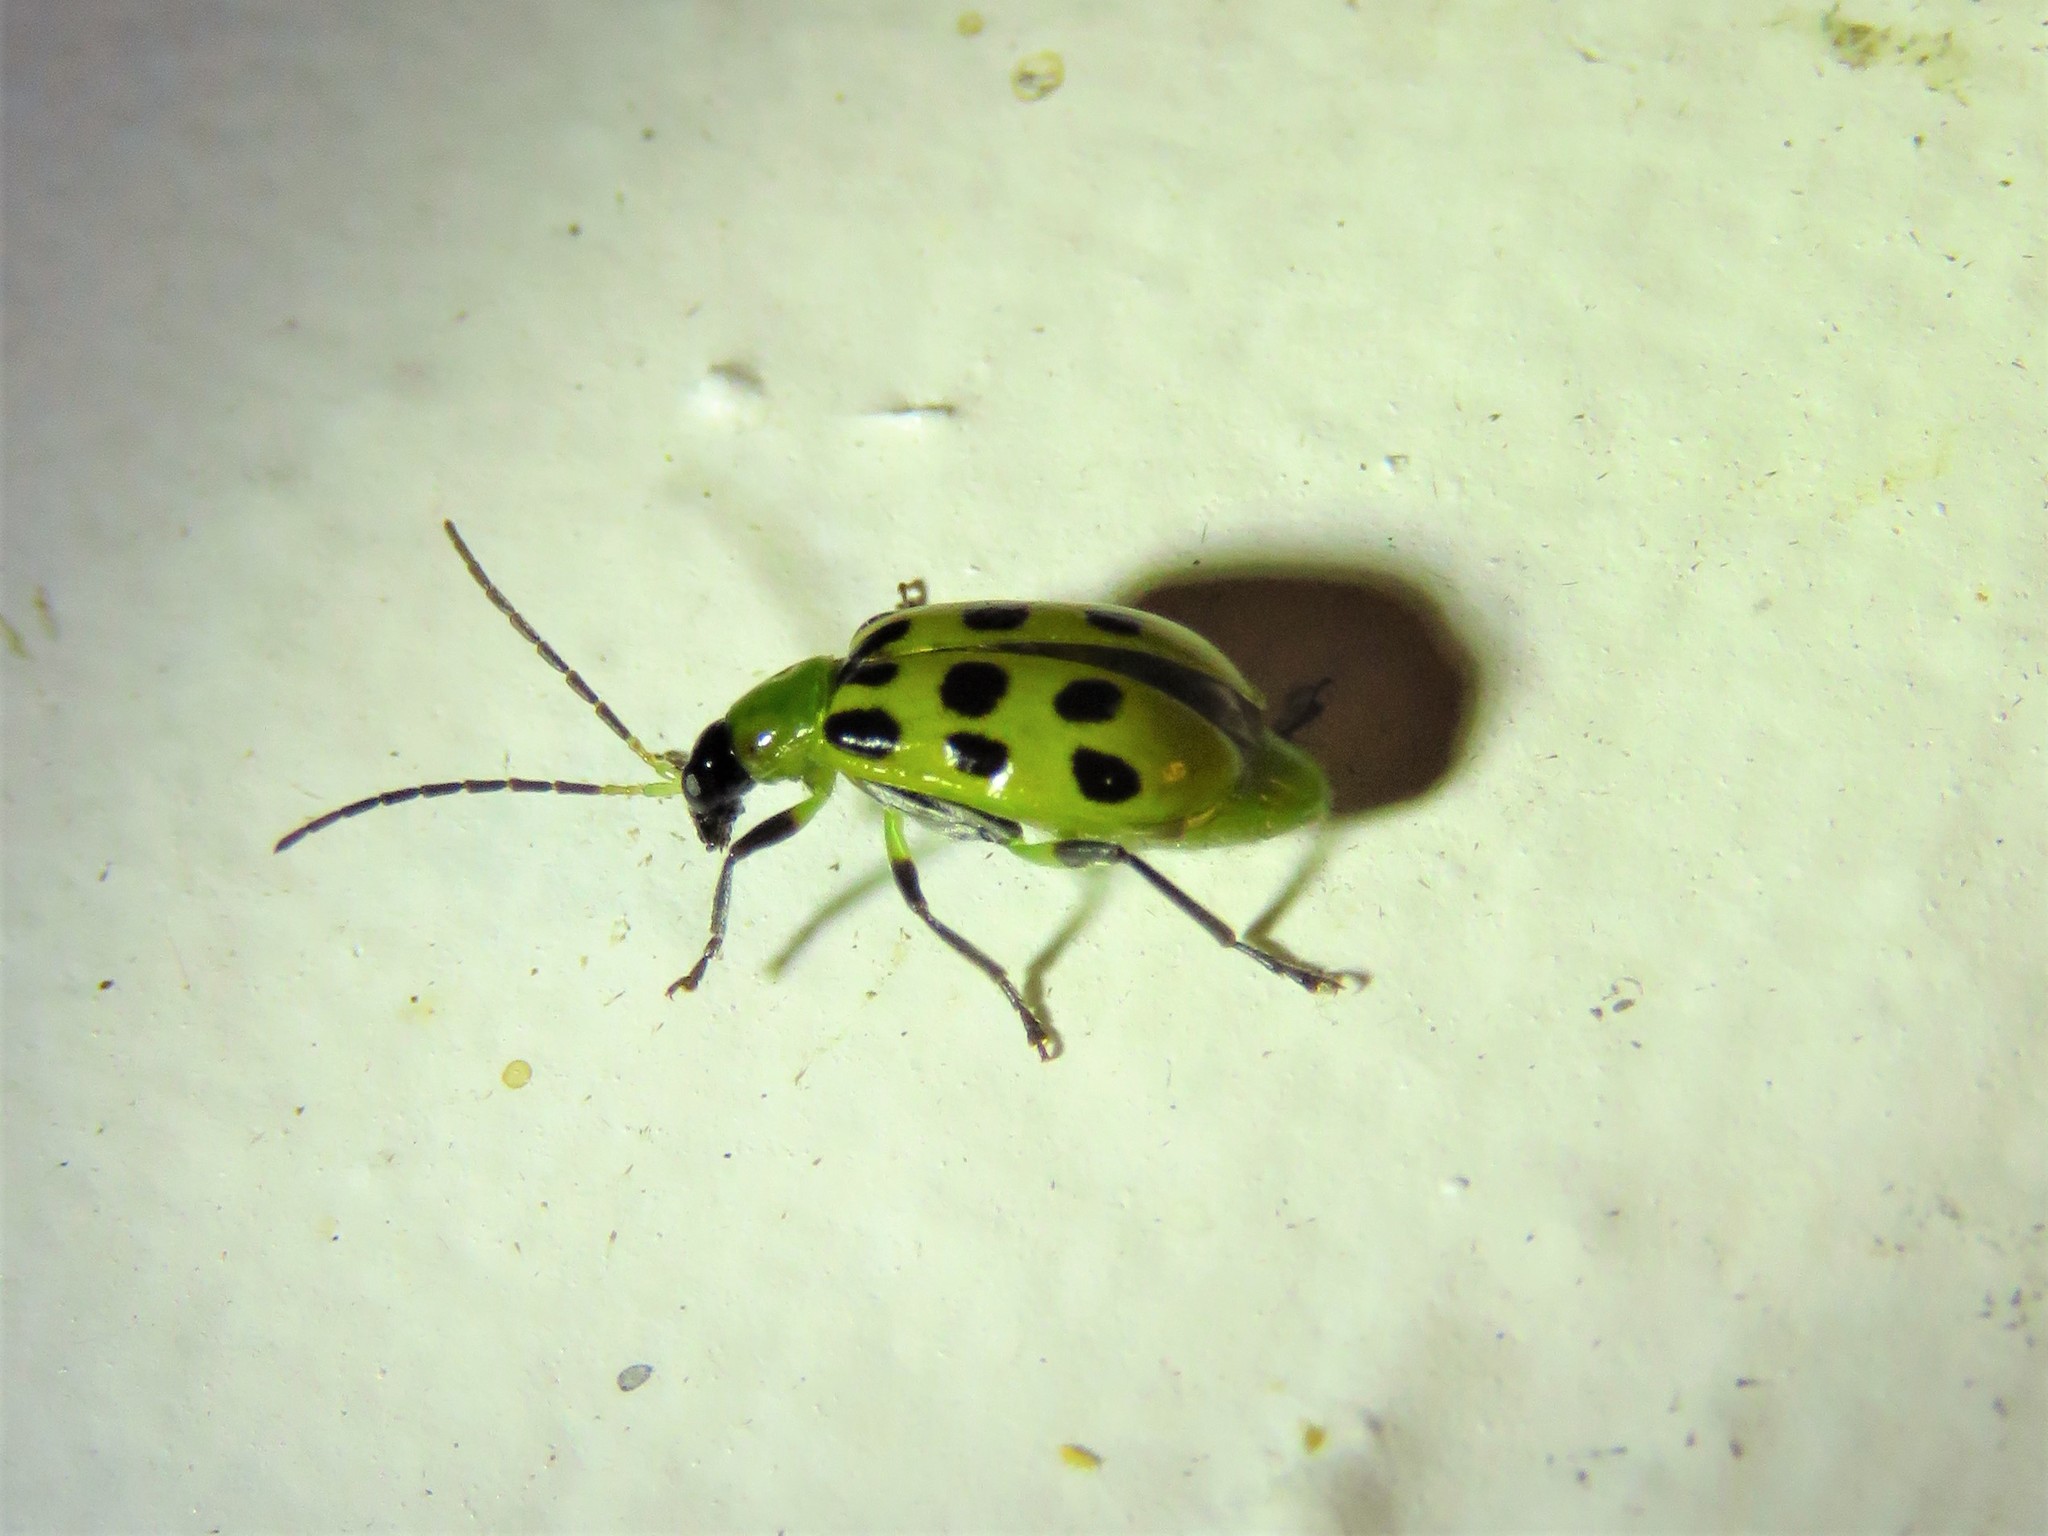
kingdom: Animalia
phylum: Arthropoda
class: Insecta
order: Coleoptera
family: Chrysomelidae
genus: Diabrotica
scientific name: Diabrotica undecimpunctata
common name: Spotted cucumber beetle
